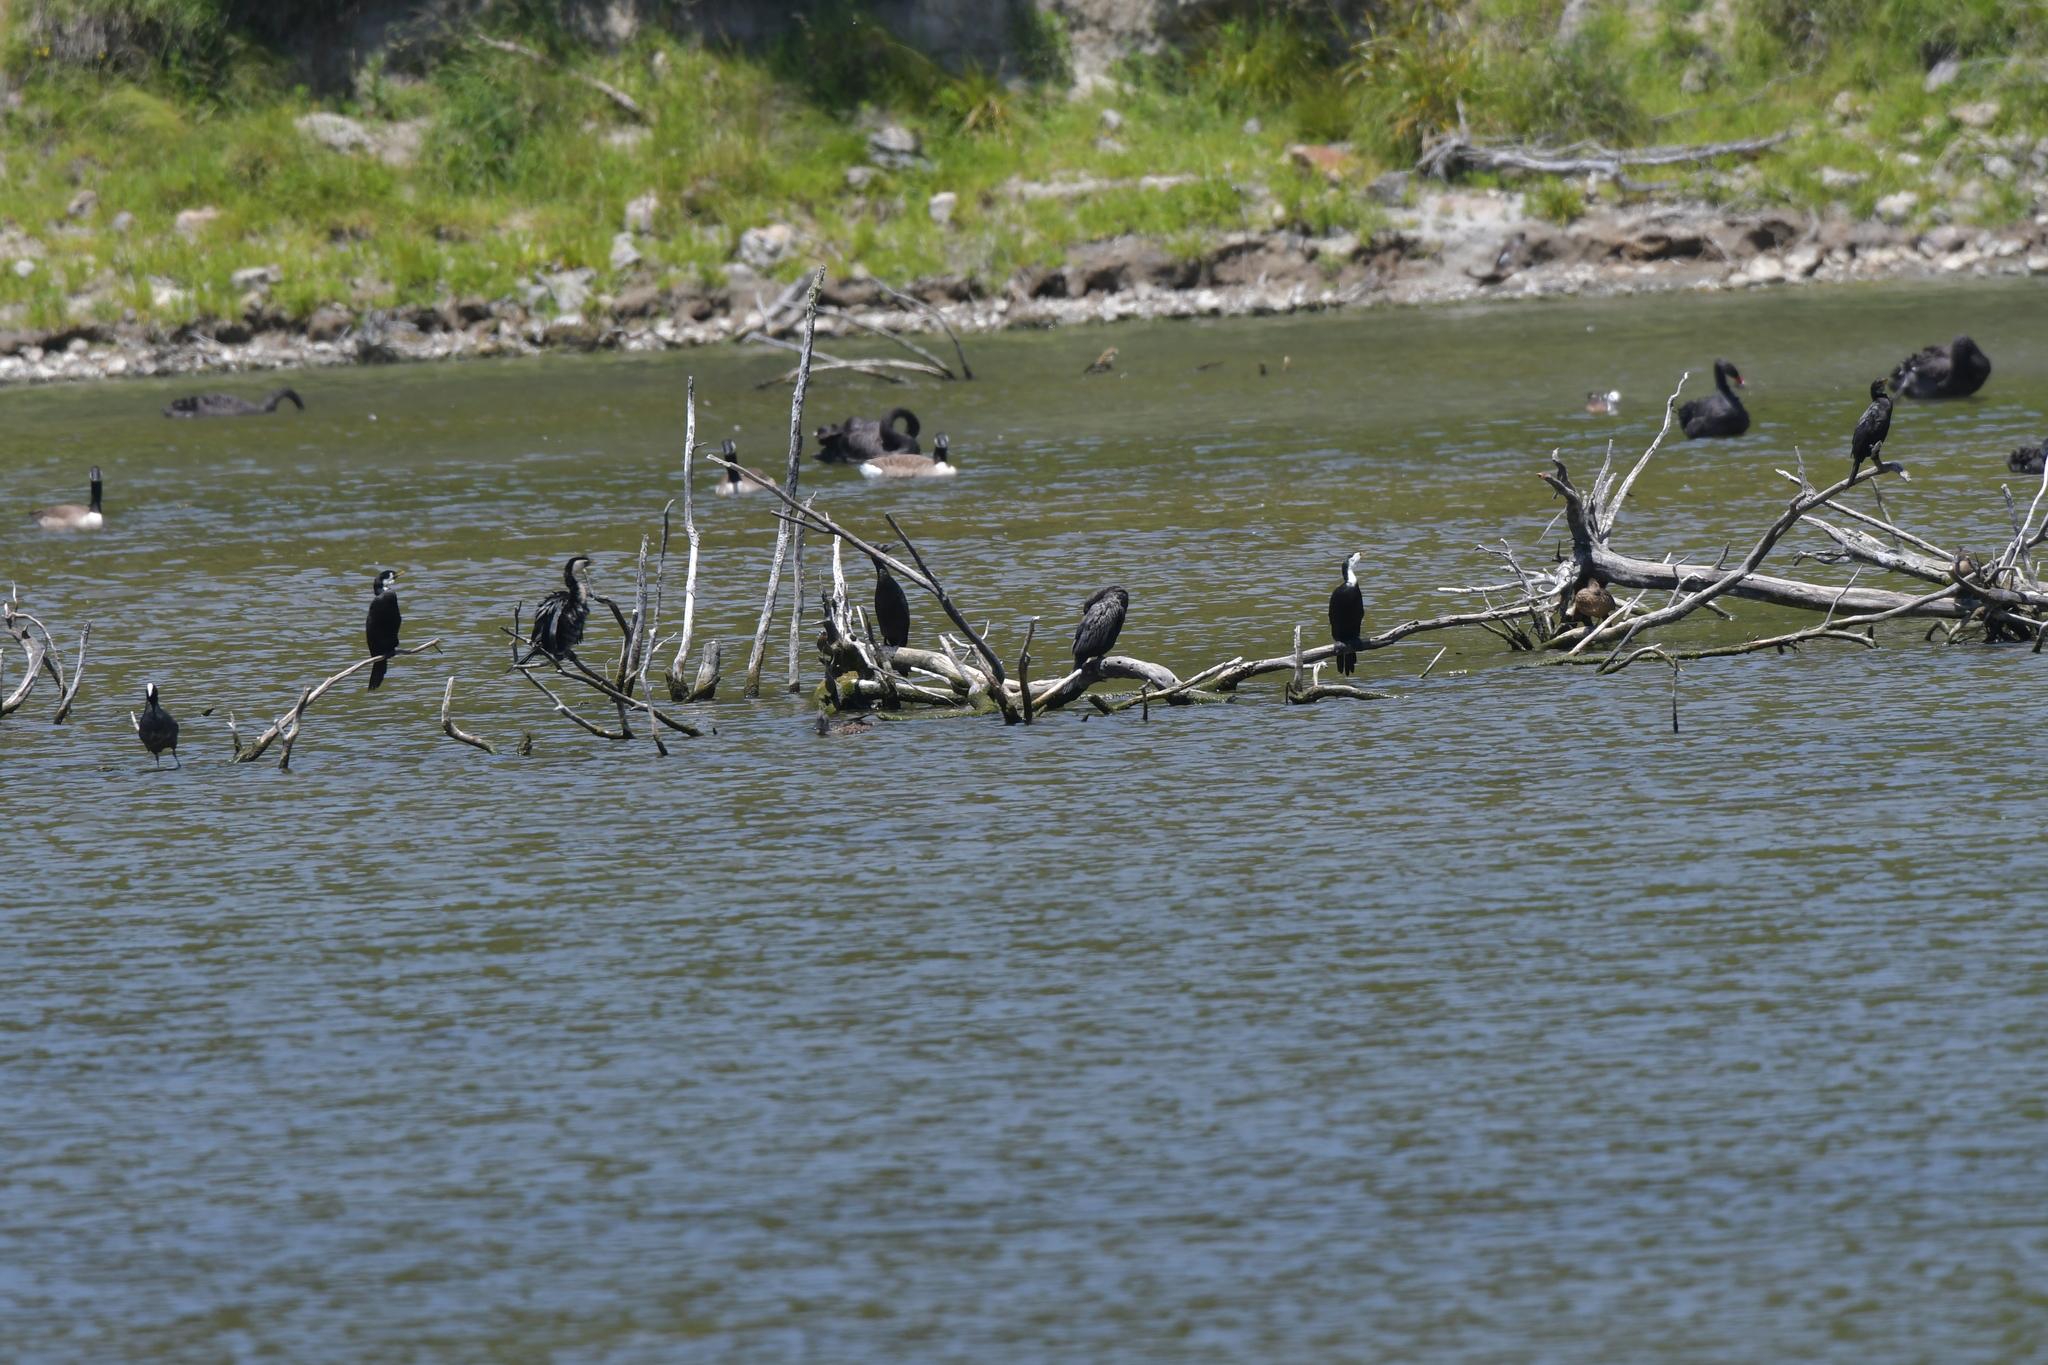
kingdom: Animalia
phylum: Chordata
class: Aves
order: Suliformes
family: Phalacrocoracidae
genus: Microcarbo
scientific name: Microcarbo melanoleucos
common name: Little pied cormorant
